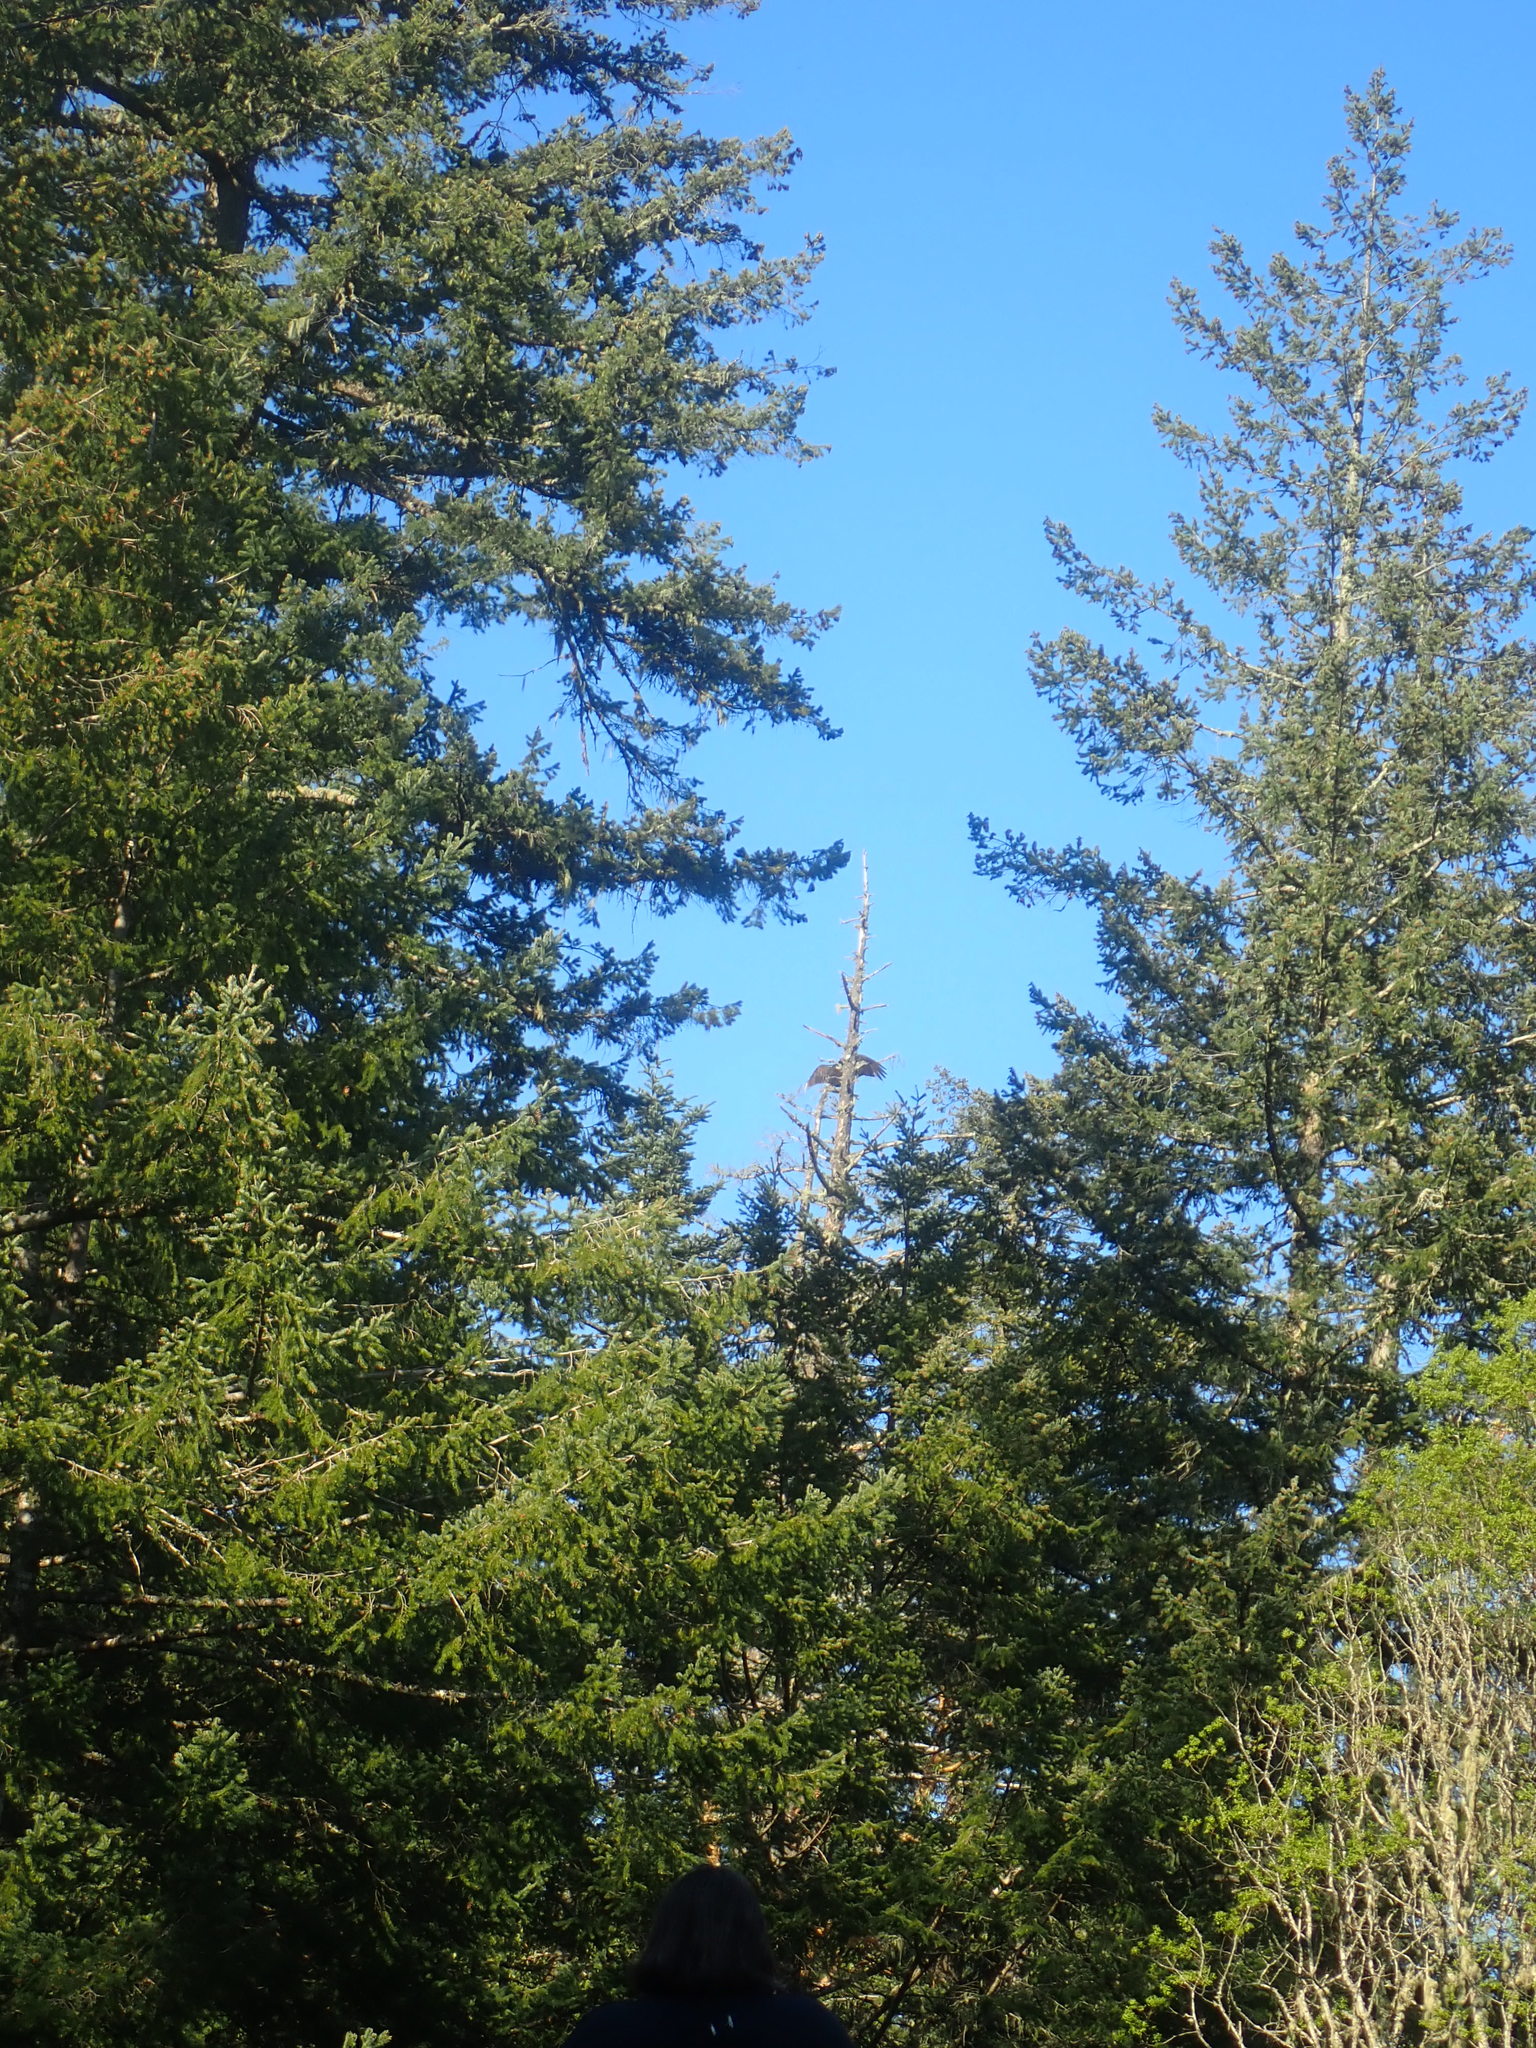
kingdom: Animalia
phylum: Chordata
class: Aves
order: Accipitriformes
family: Cathartidae
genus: Cathartes
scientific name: Cathartes aura
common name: Turkey vulture
